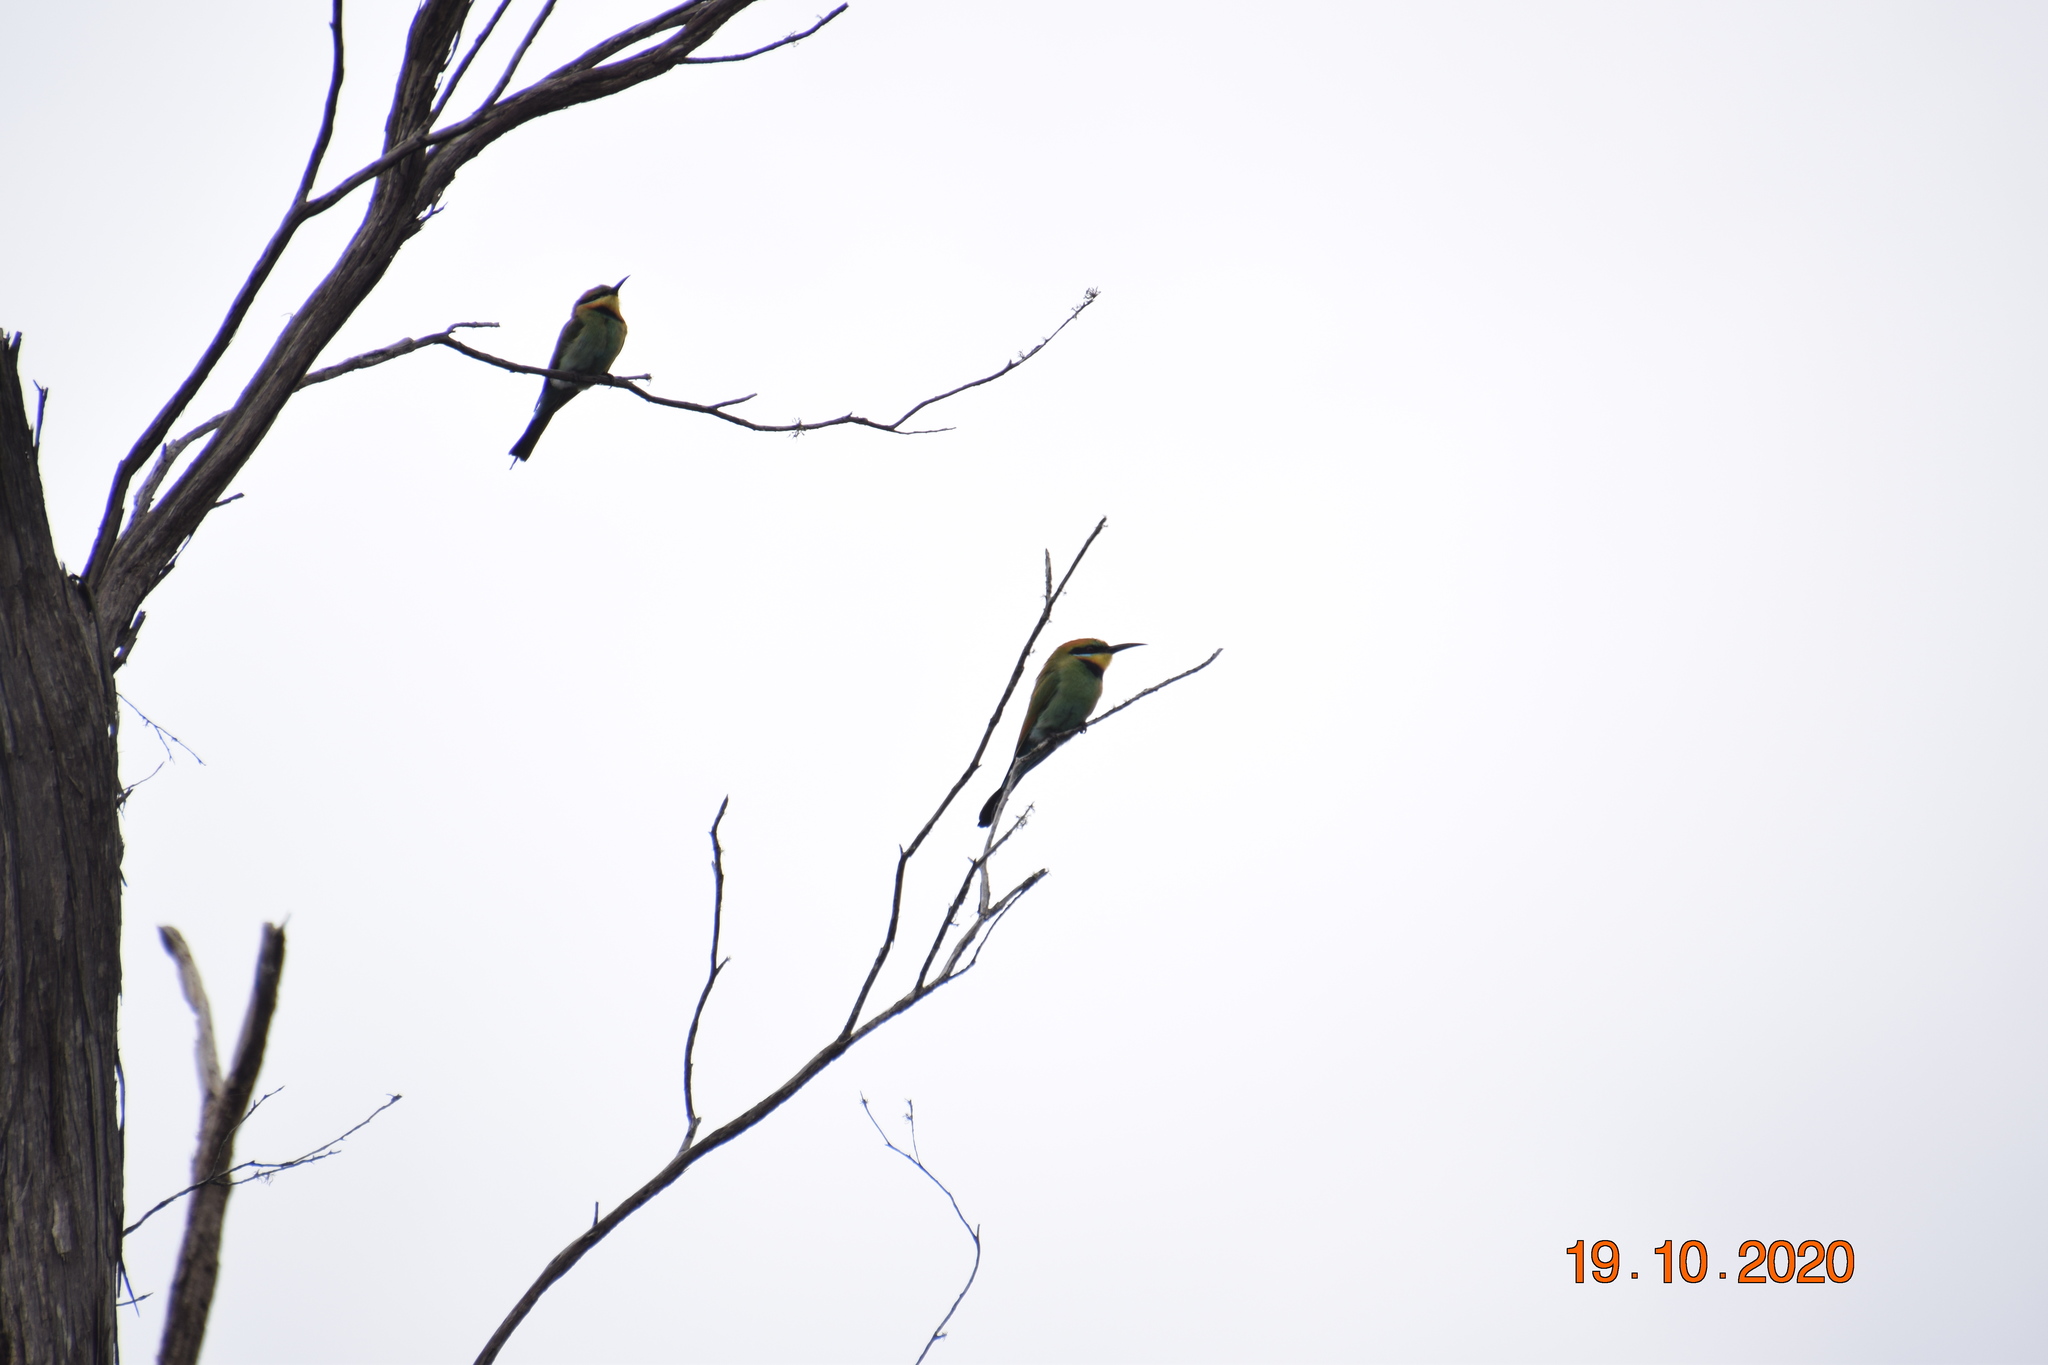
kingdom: Animalia
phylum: Chordata
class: Aves
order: Coraciiformes
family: Meropidae
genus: Merops
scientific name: Merops ornatus
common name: Rainbow bee-eater
